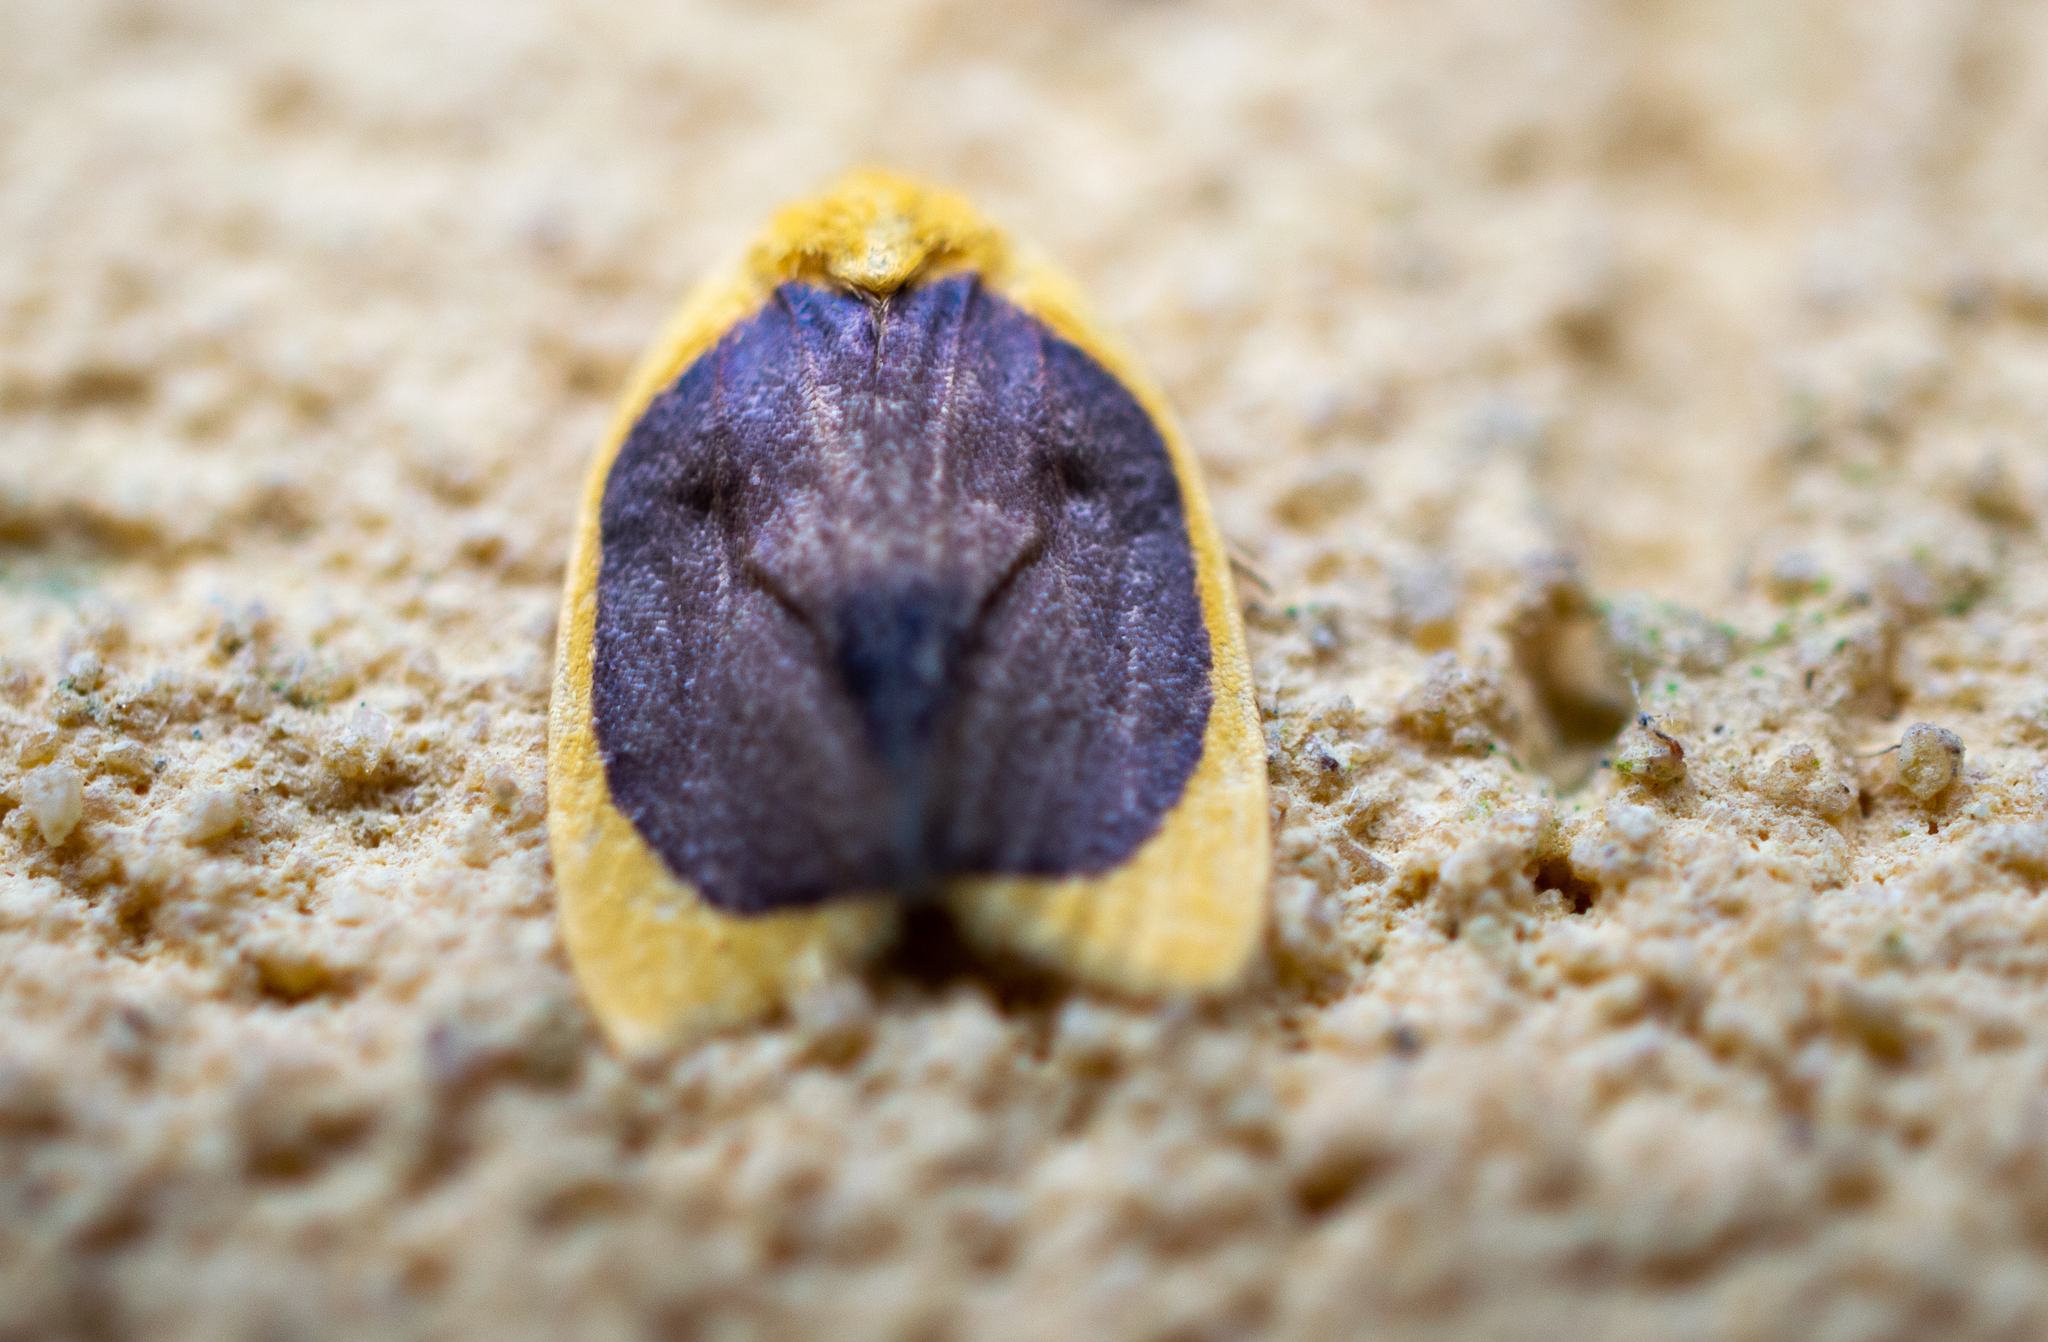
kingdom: Animalia
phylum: Arthropoda
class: Insecta
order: Lepidoptera
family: Erebidae
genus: Pronola
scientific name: Pronola magniplaga
